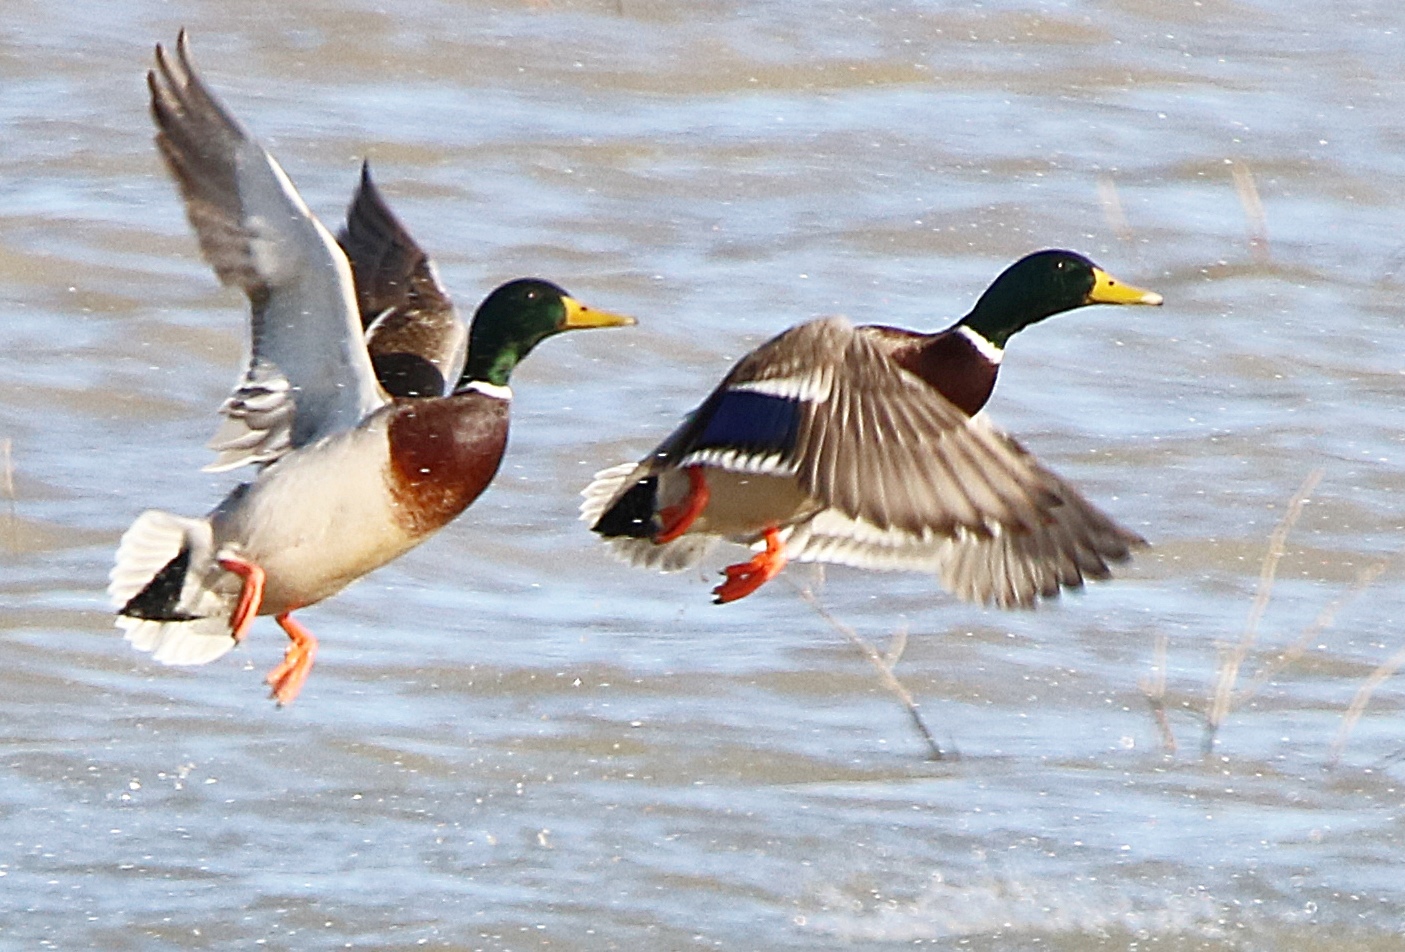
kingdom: Animalia
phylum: Chordata
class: Aves
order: Anseriformes
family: Anatidae
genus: Anas
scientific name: Anas platyrhynchos
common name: Mallard
